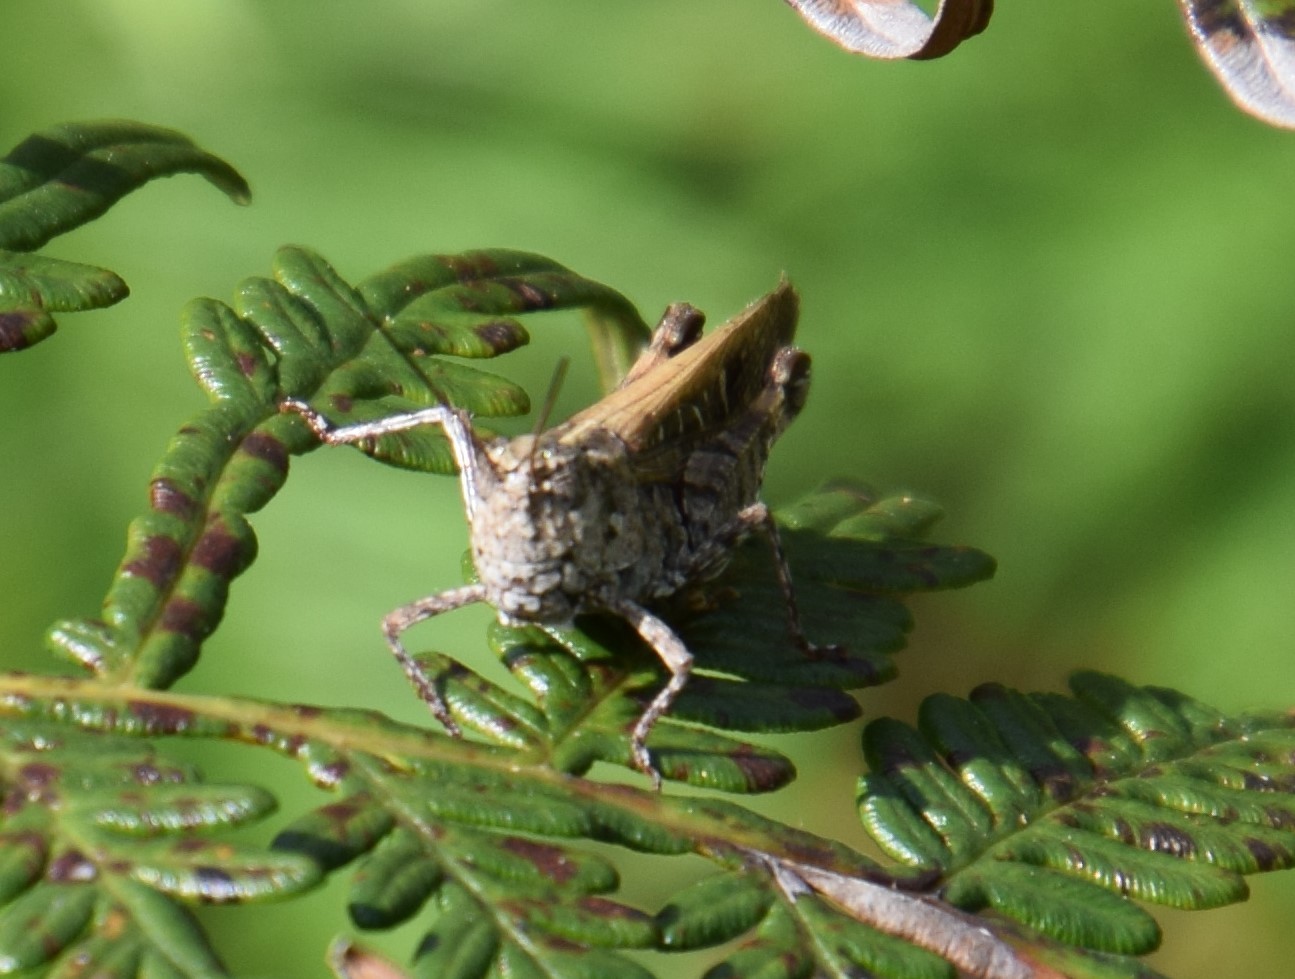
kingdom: Animalia
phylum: Arthropoda
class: Insecta
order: Orthoptera
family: Acrididae
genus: Heteropternis
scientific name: Heteropternis obscurella
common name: Long-legged bandwing
